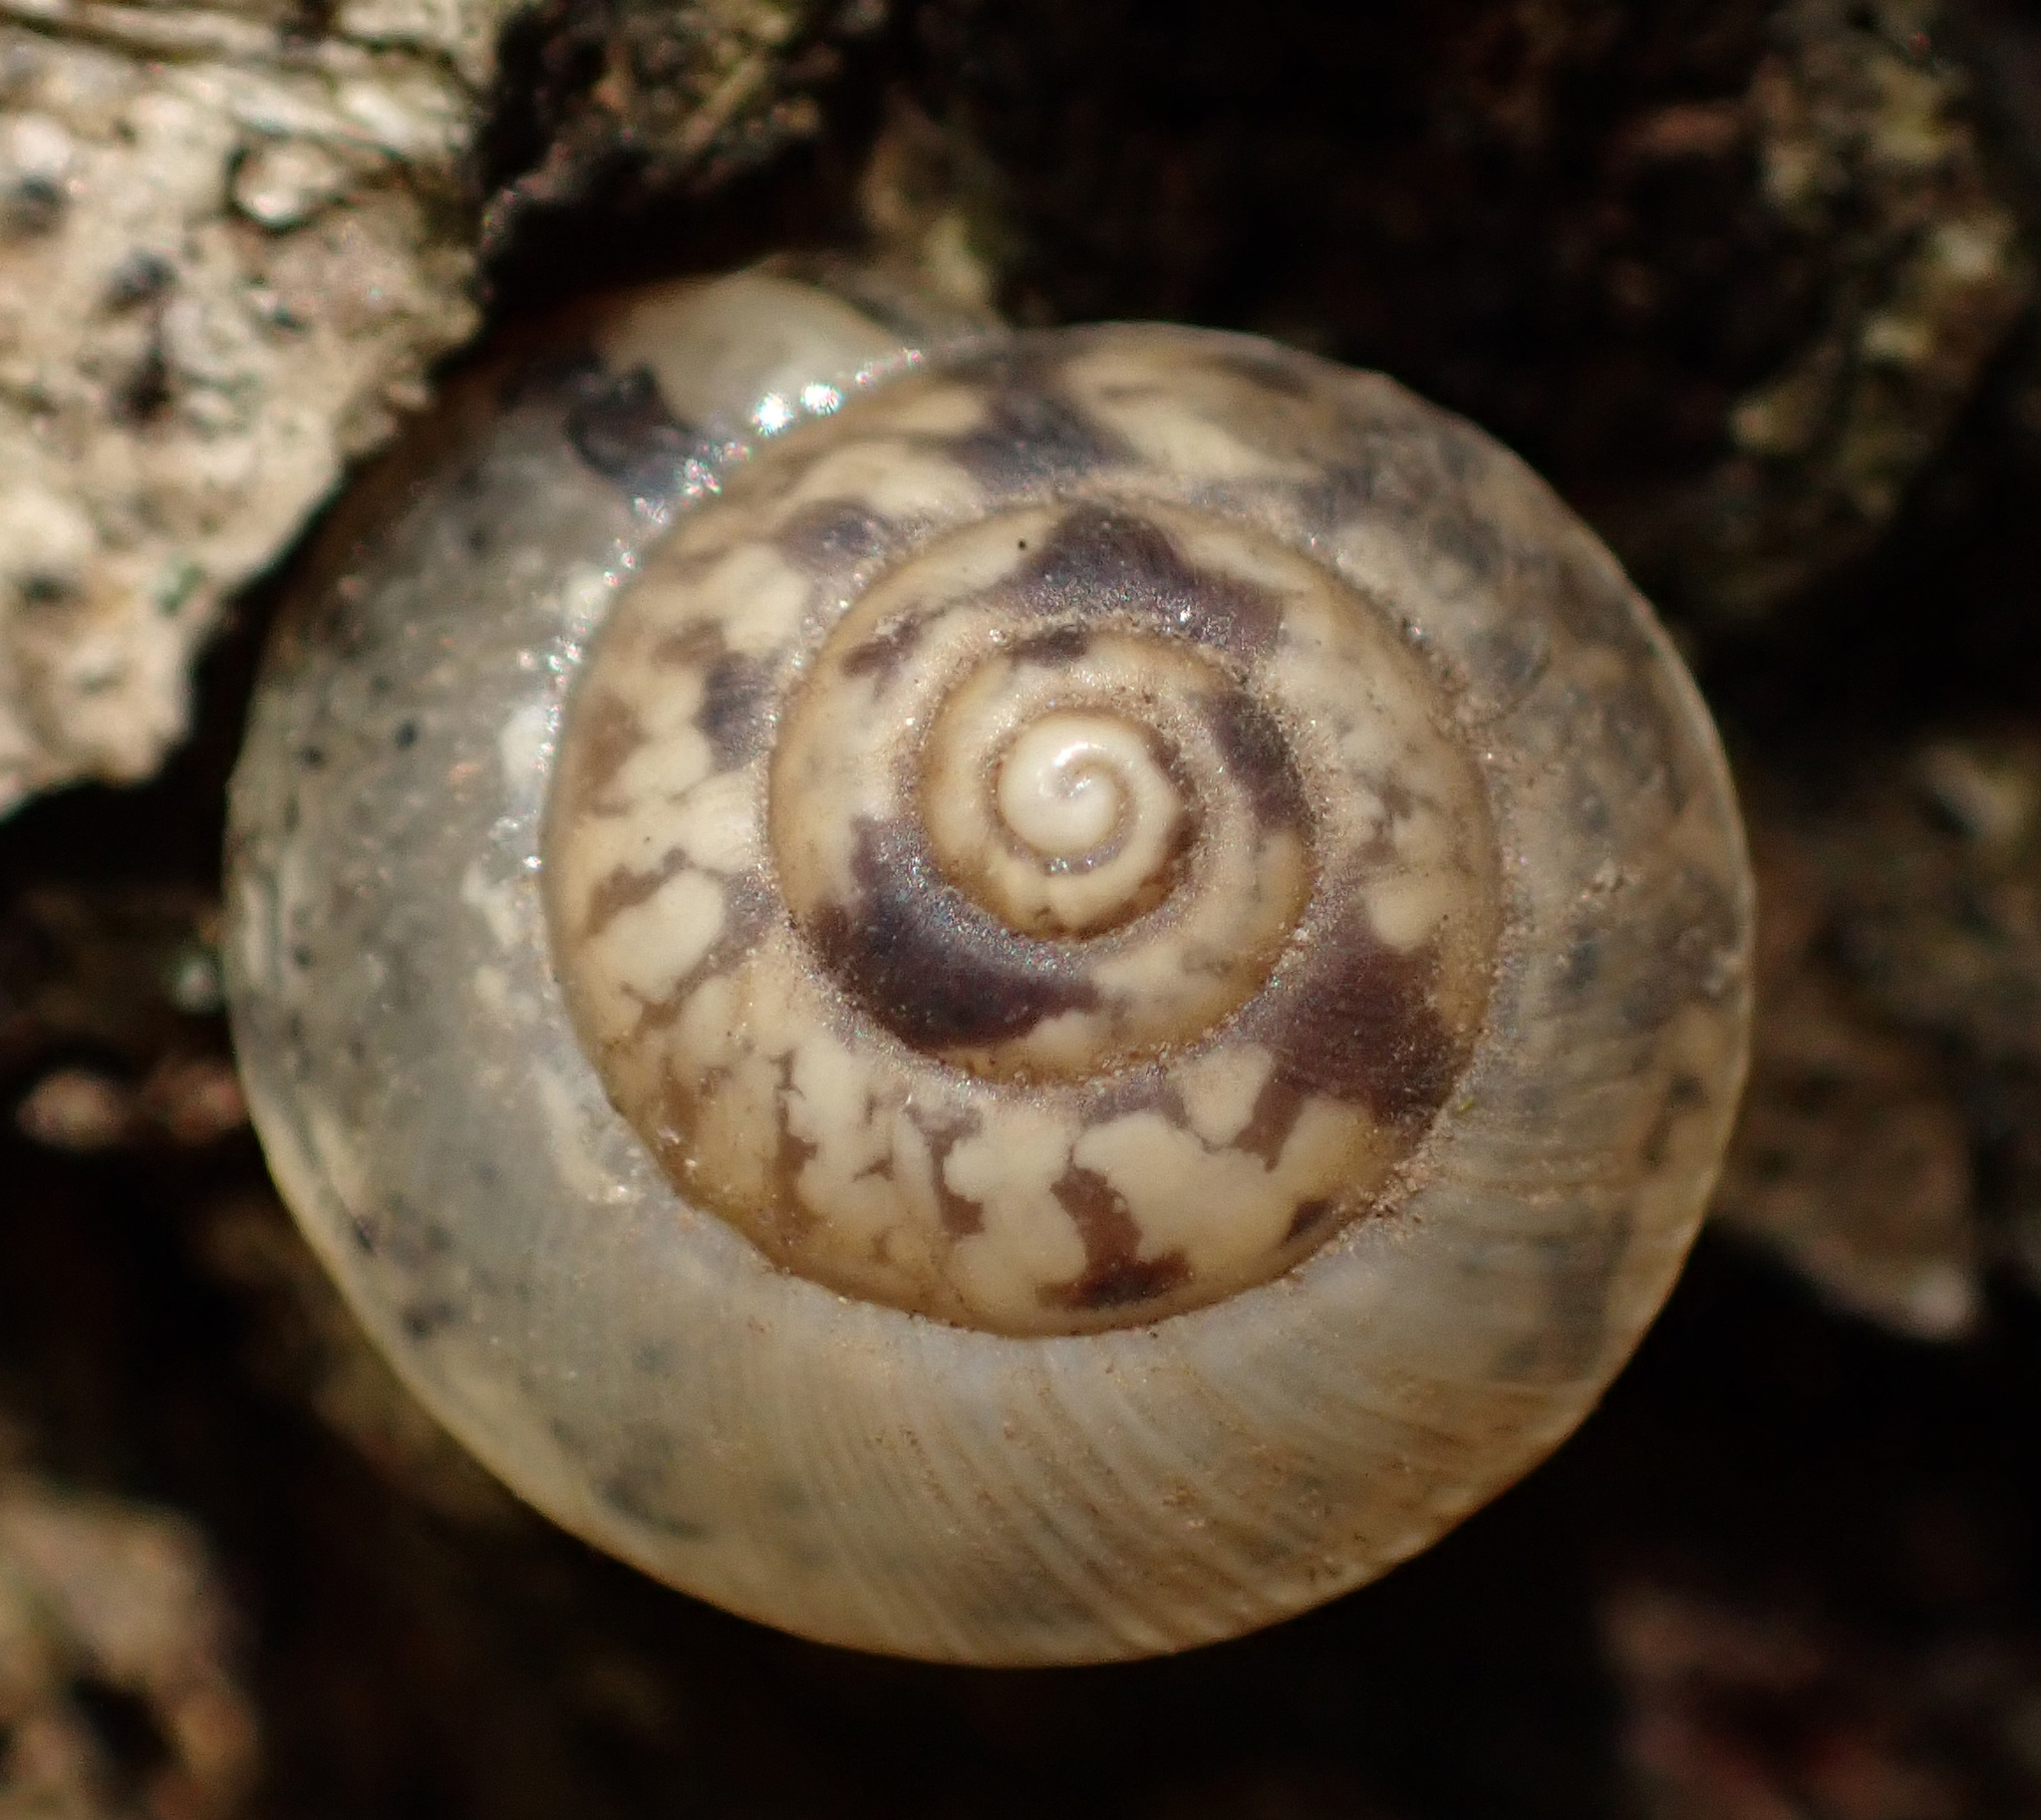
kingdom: Animalia
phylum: Mollusca
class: Gastropoda
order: Stylommatophora
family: Hygromiidae
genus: Hygromia
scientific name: Hygromia cinctella
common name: Girdled snail
